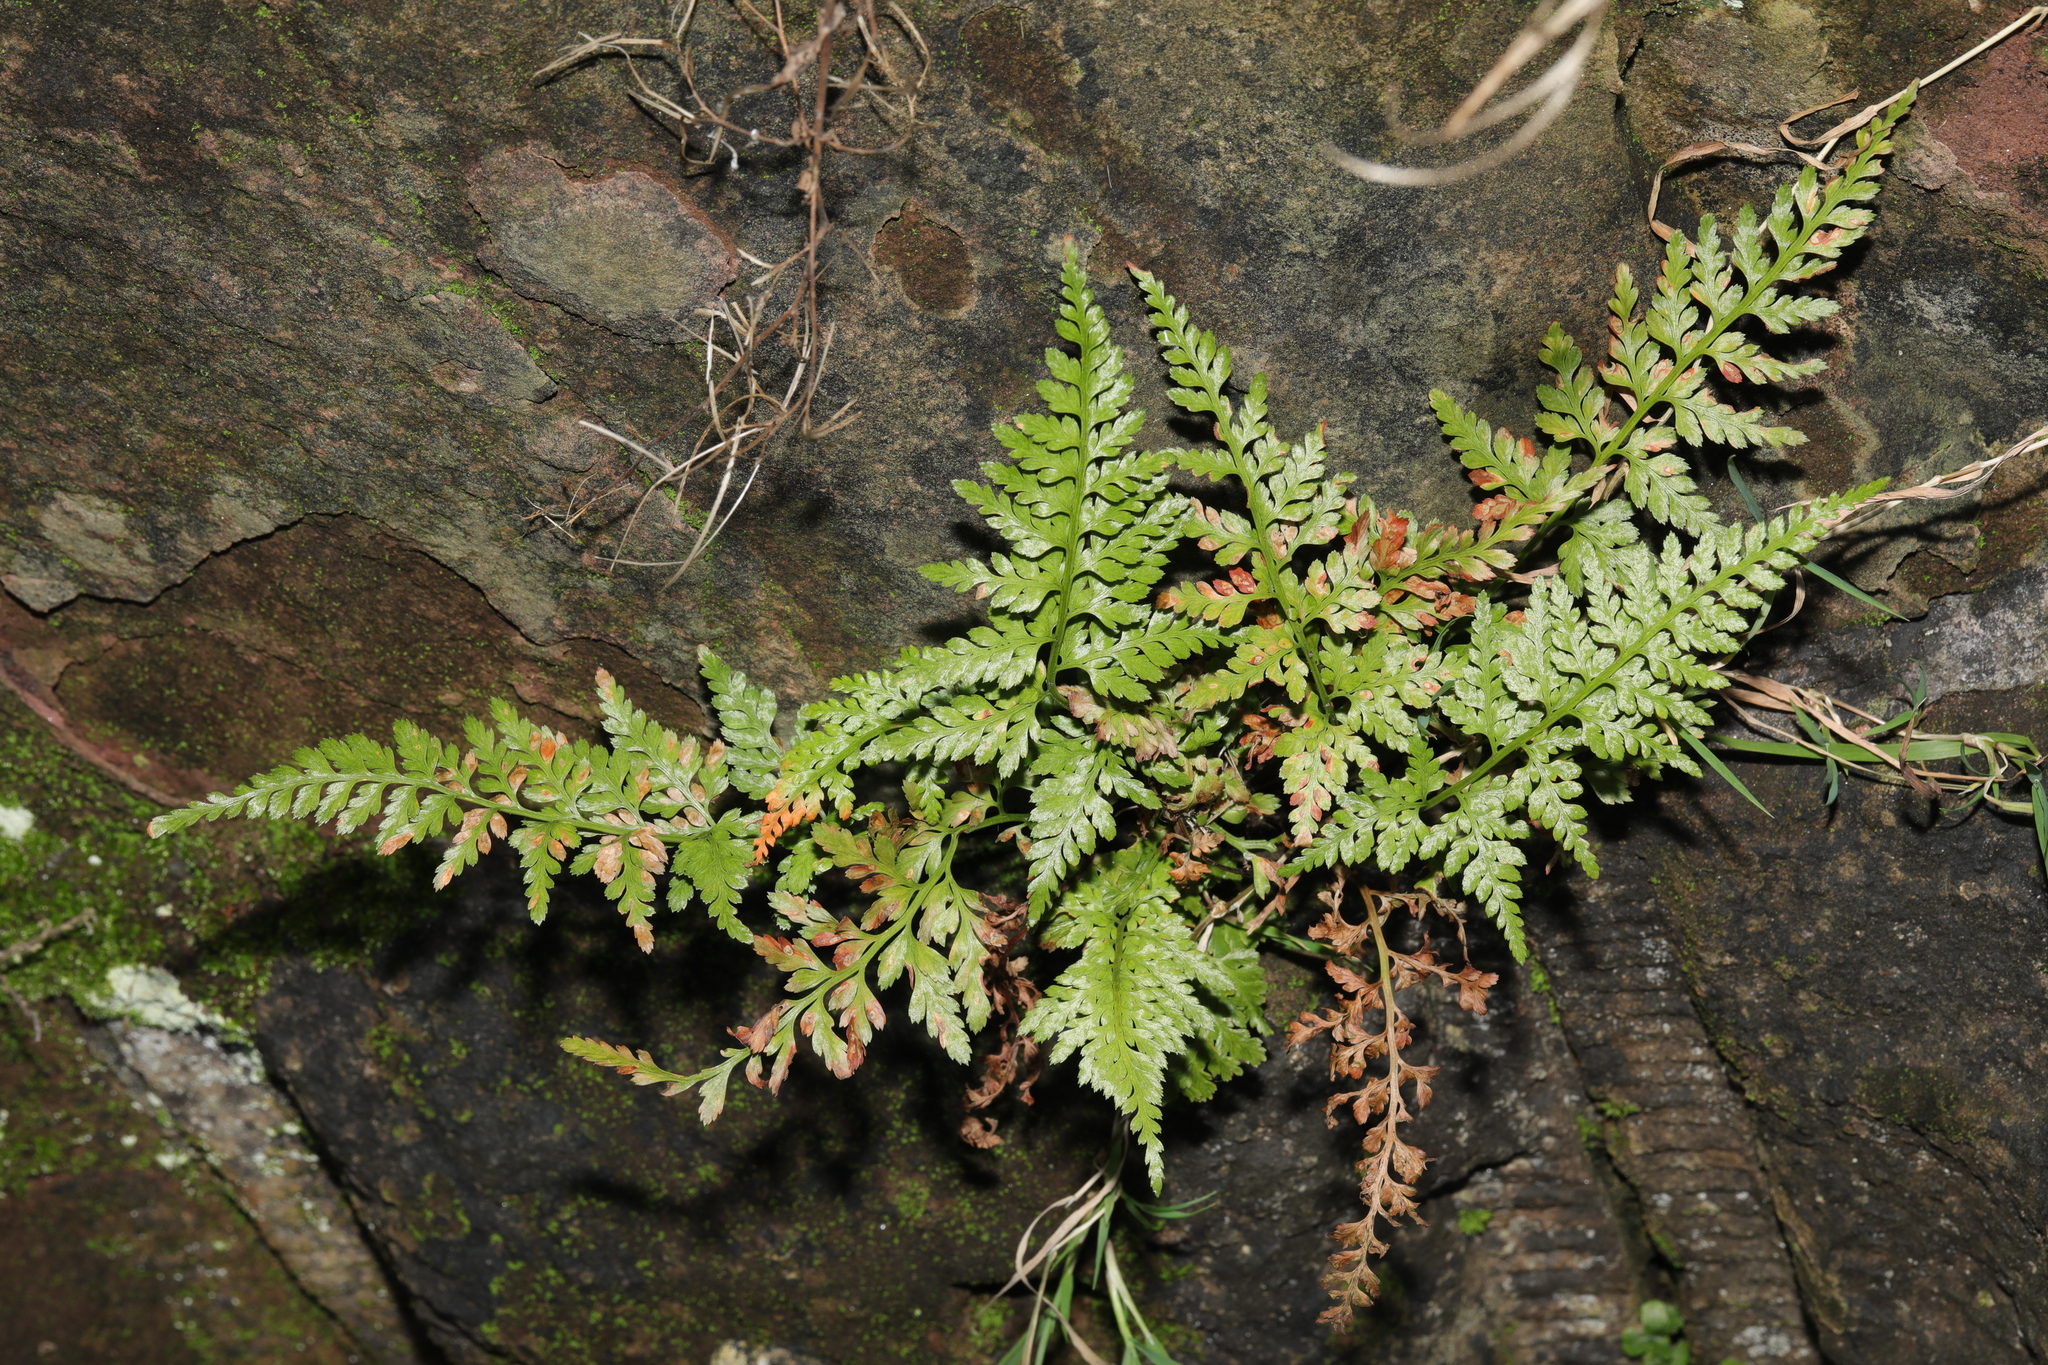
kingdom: Plantae
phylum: Tracheophyta
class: Polypodiopsida
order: Polypodiales
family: Aspleniaceae
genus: Asplenium
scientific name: Asplenium adiantum-nigrum
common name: Black spleenwort
